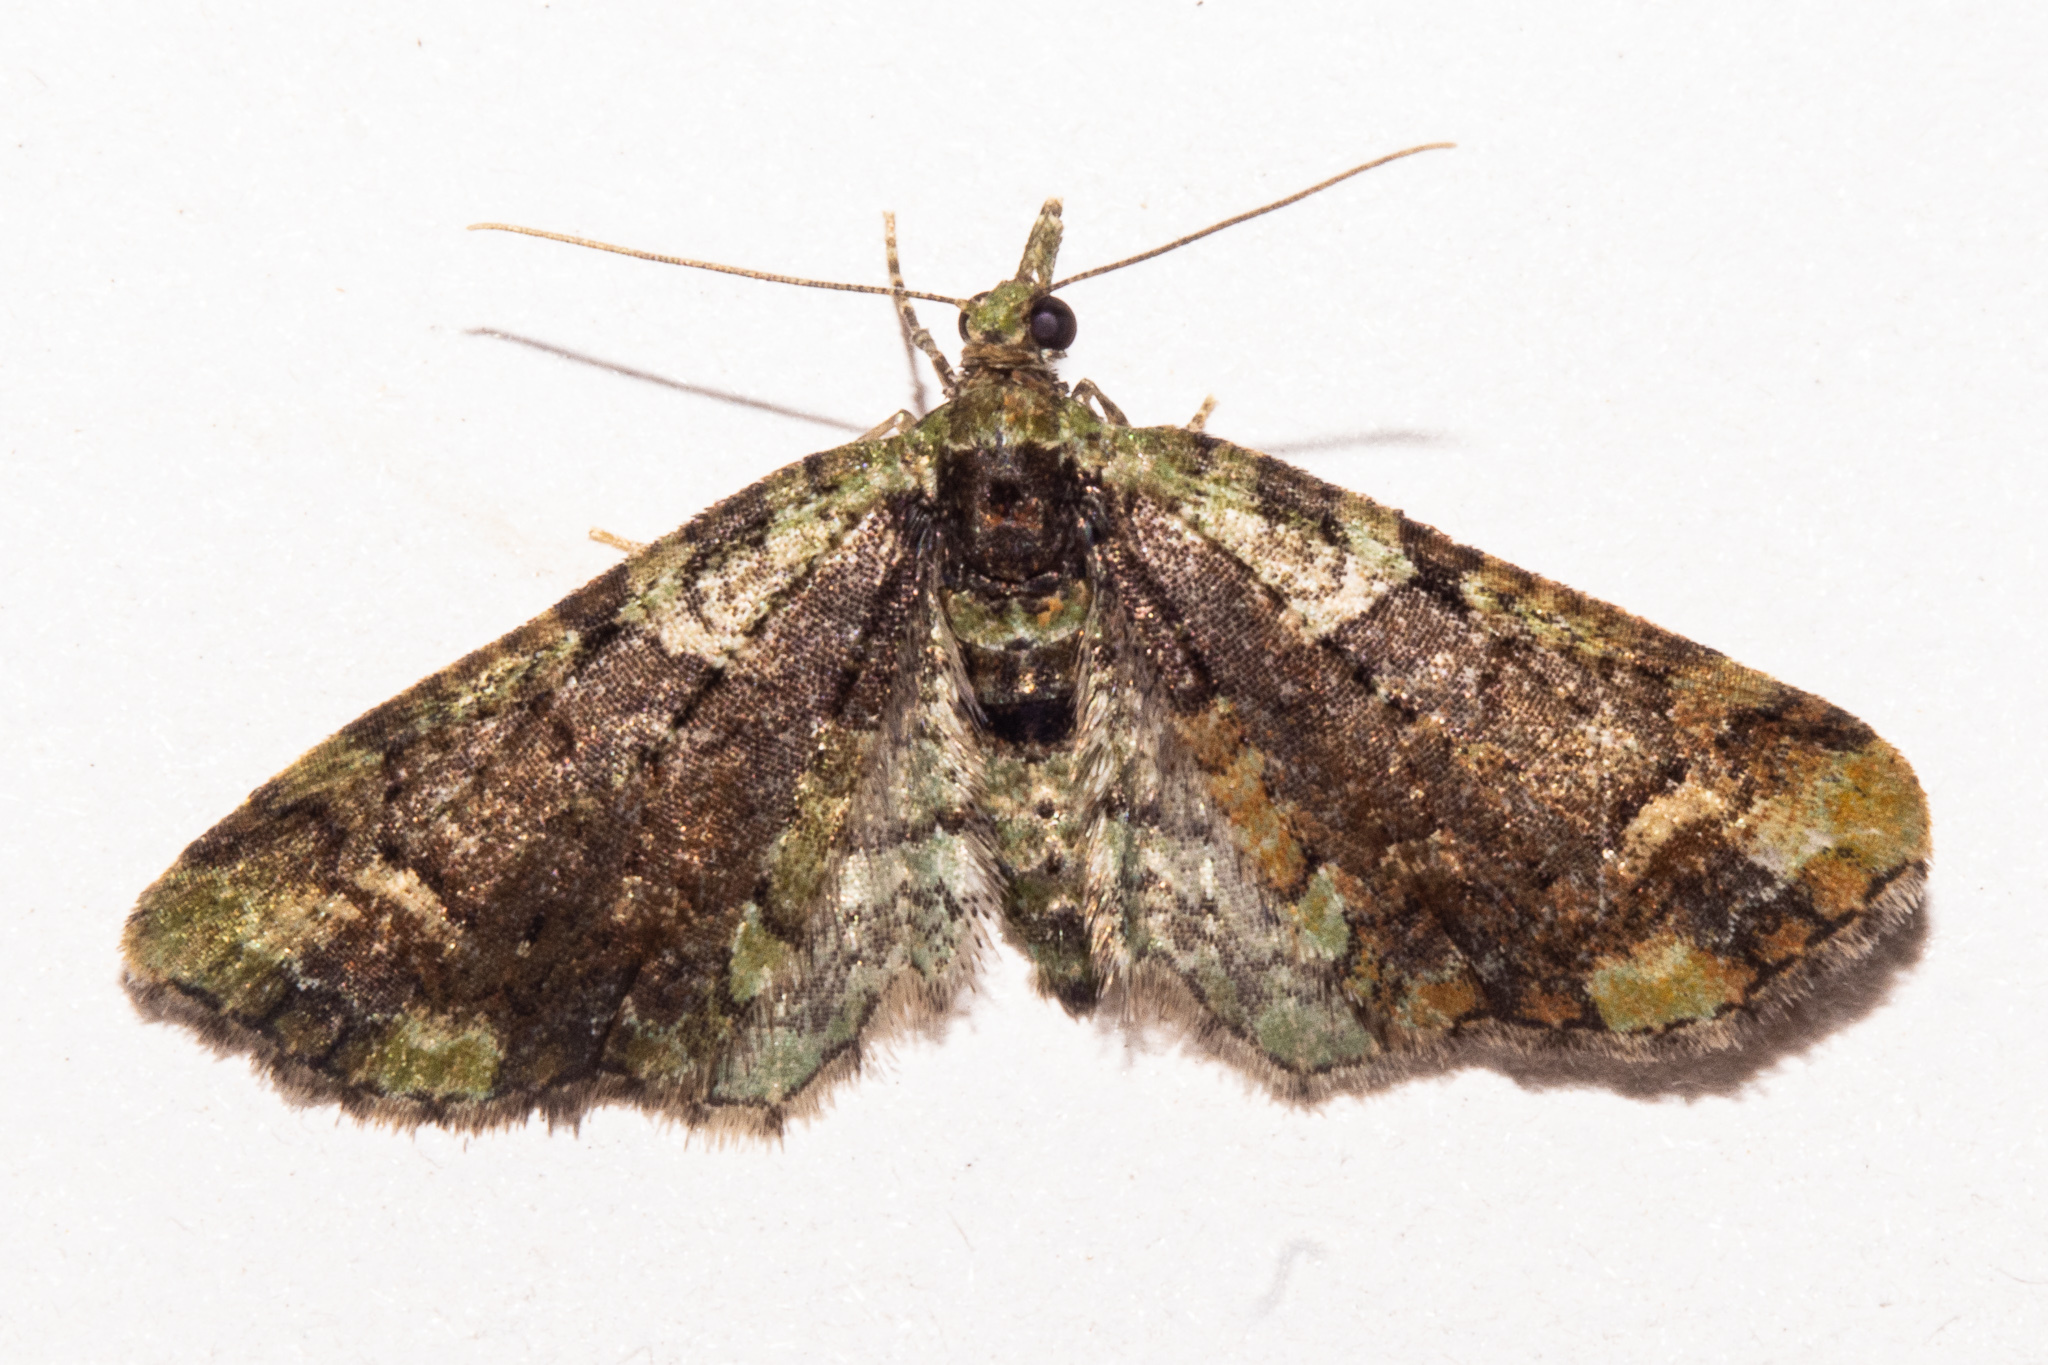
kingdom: Animalia
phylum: Arthropoda
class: Insecta
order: Lepidoptera
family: Geometridae
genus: Idaea
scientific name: Idaea mutanda
